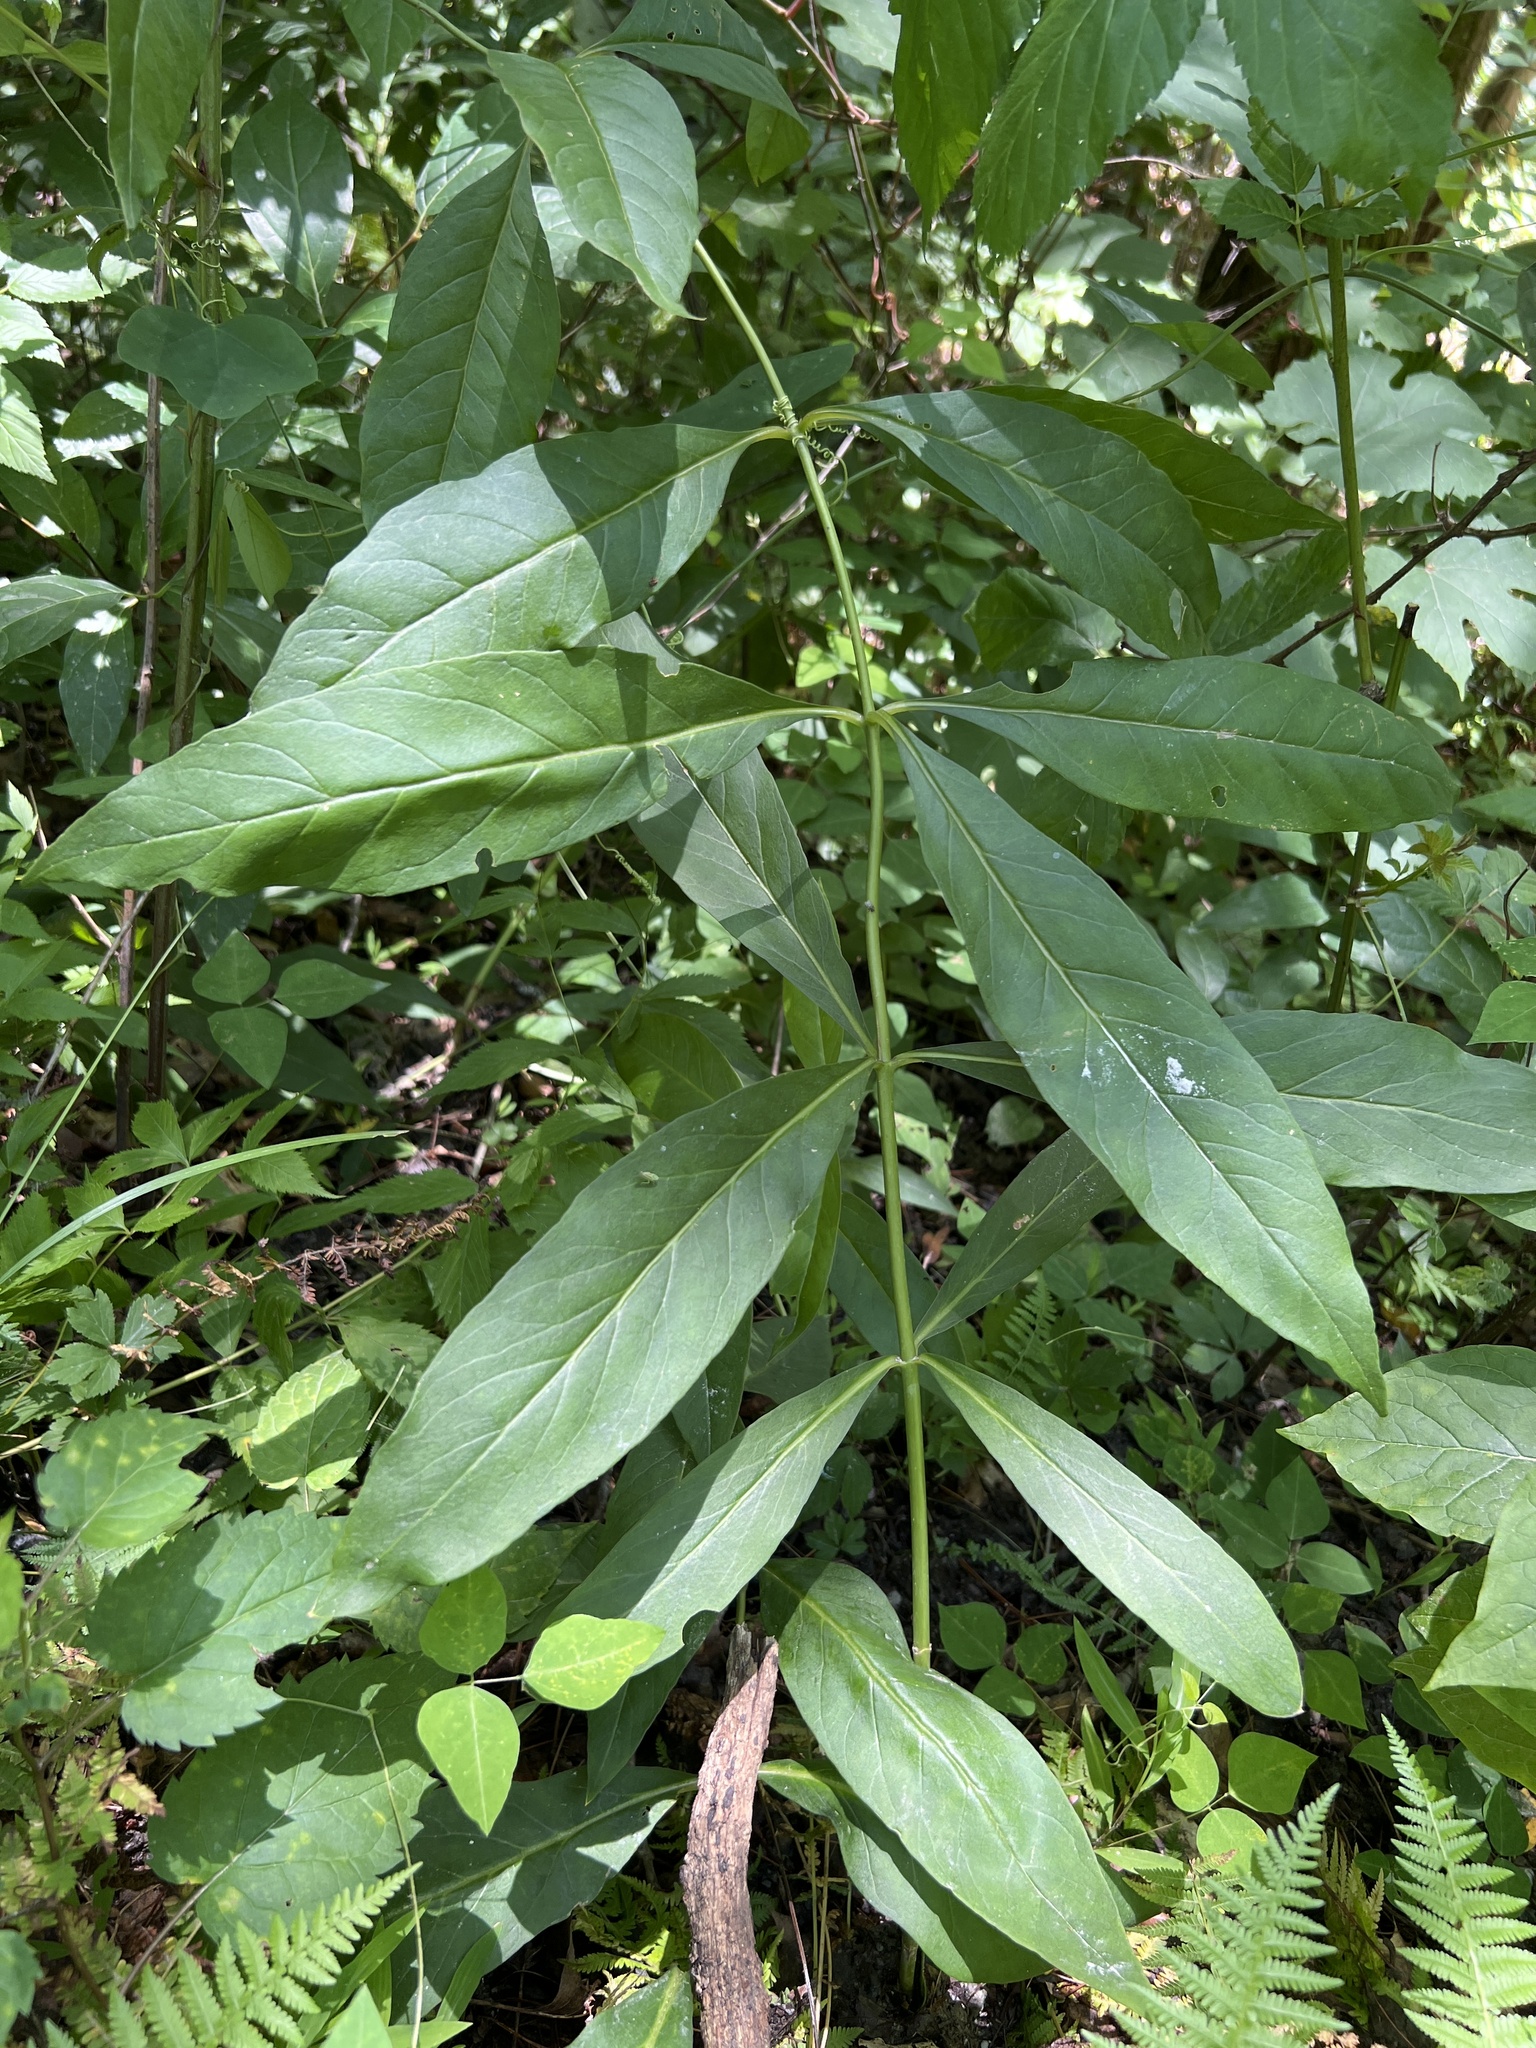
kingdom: Plantae
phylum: Tracheophyta
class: Magnoliopsida
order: Ericales
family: Primulaceae
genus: Lysimachia
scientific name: Lysimachia fraseri
